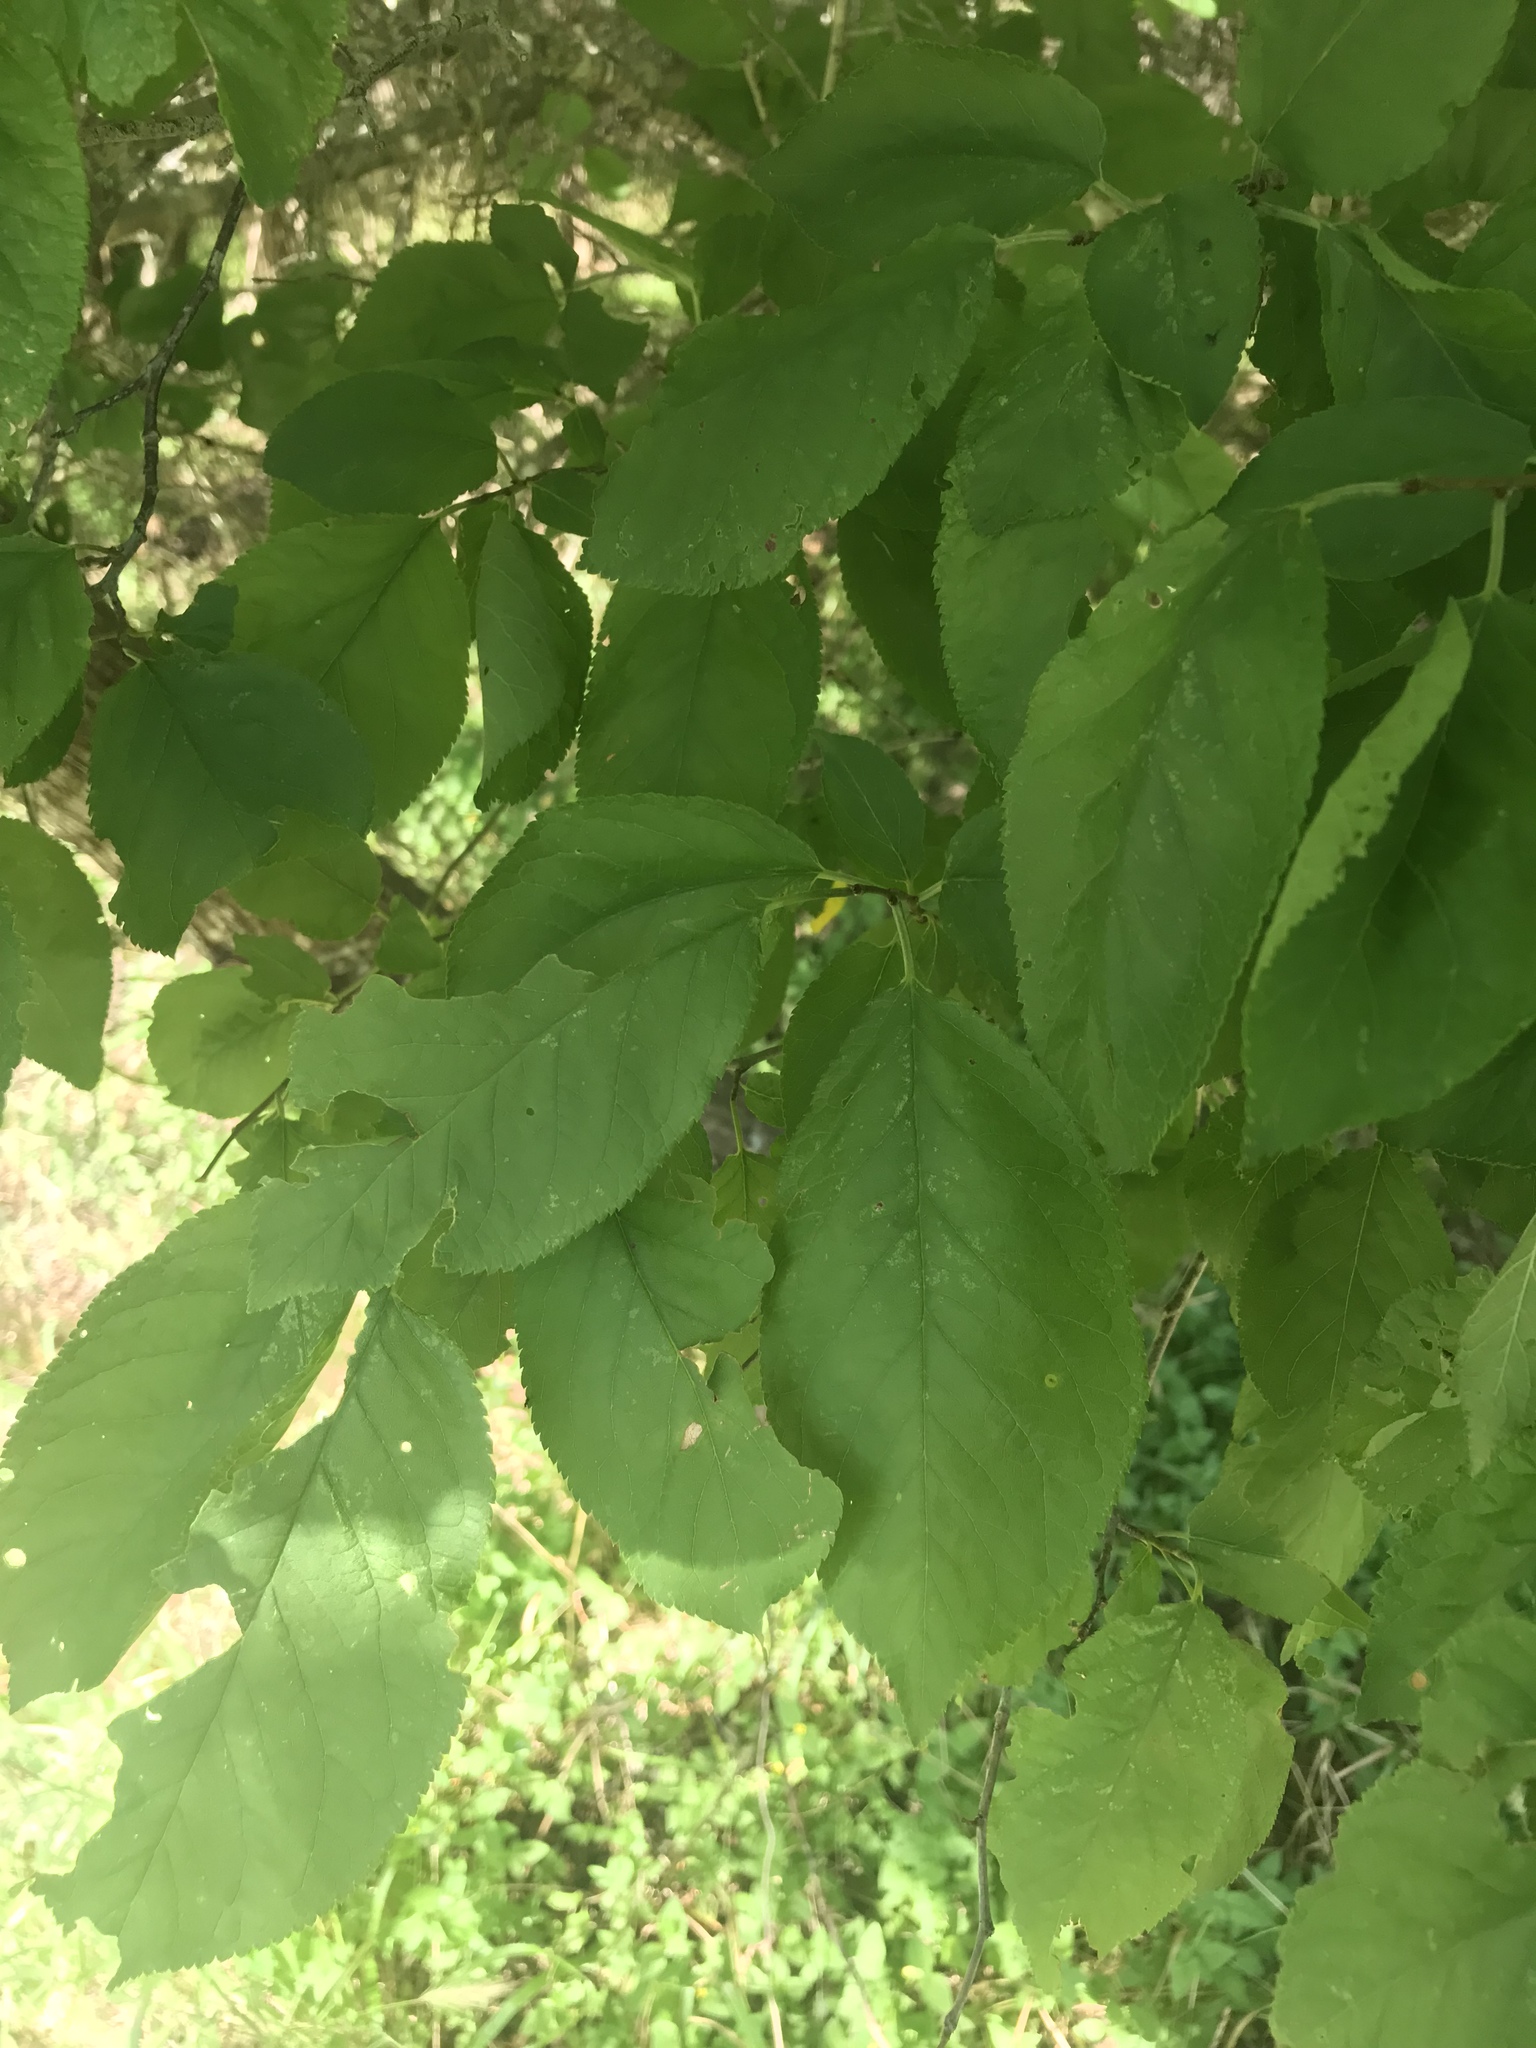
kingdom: Plantae
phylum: Tracheophyta
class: Magnoliopsida
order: Rosales
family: Rosaceae
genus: Prunus
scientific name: Prunus mexicana
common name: Mexican plum
